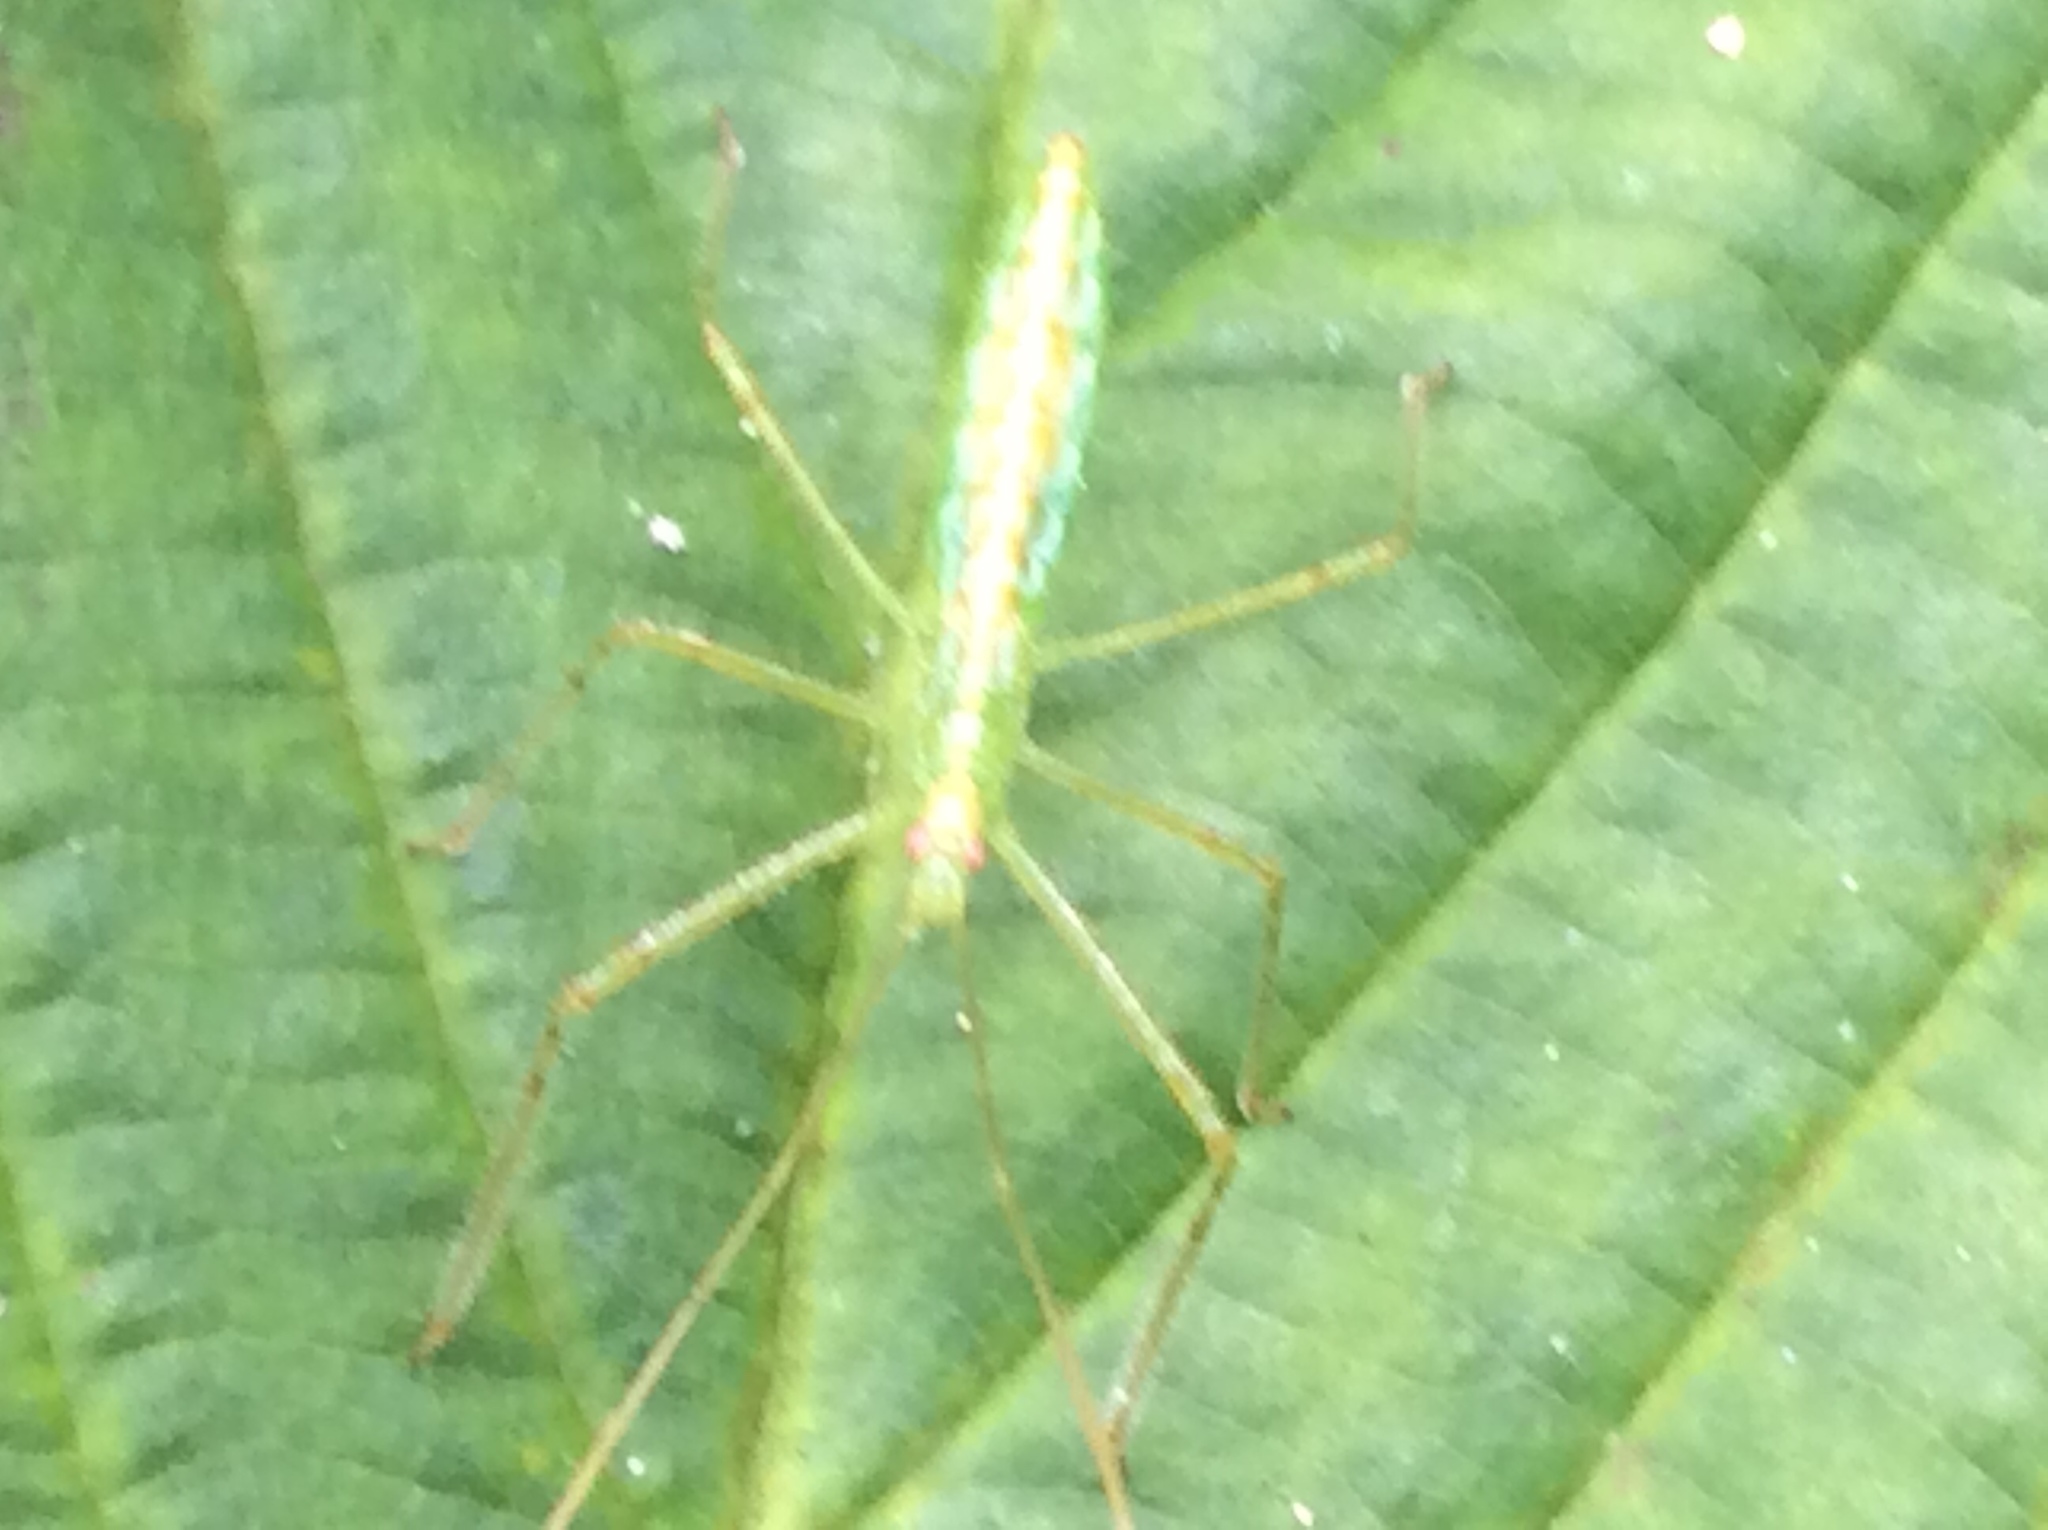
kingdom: Animalia
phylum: Arthropoda
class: Insecta
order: Hemiptera
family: Reduviidae
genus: Zelus
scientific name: Zelus luridus
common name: Pale green assassin bug
